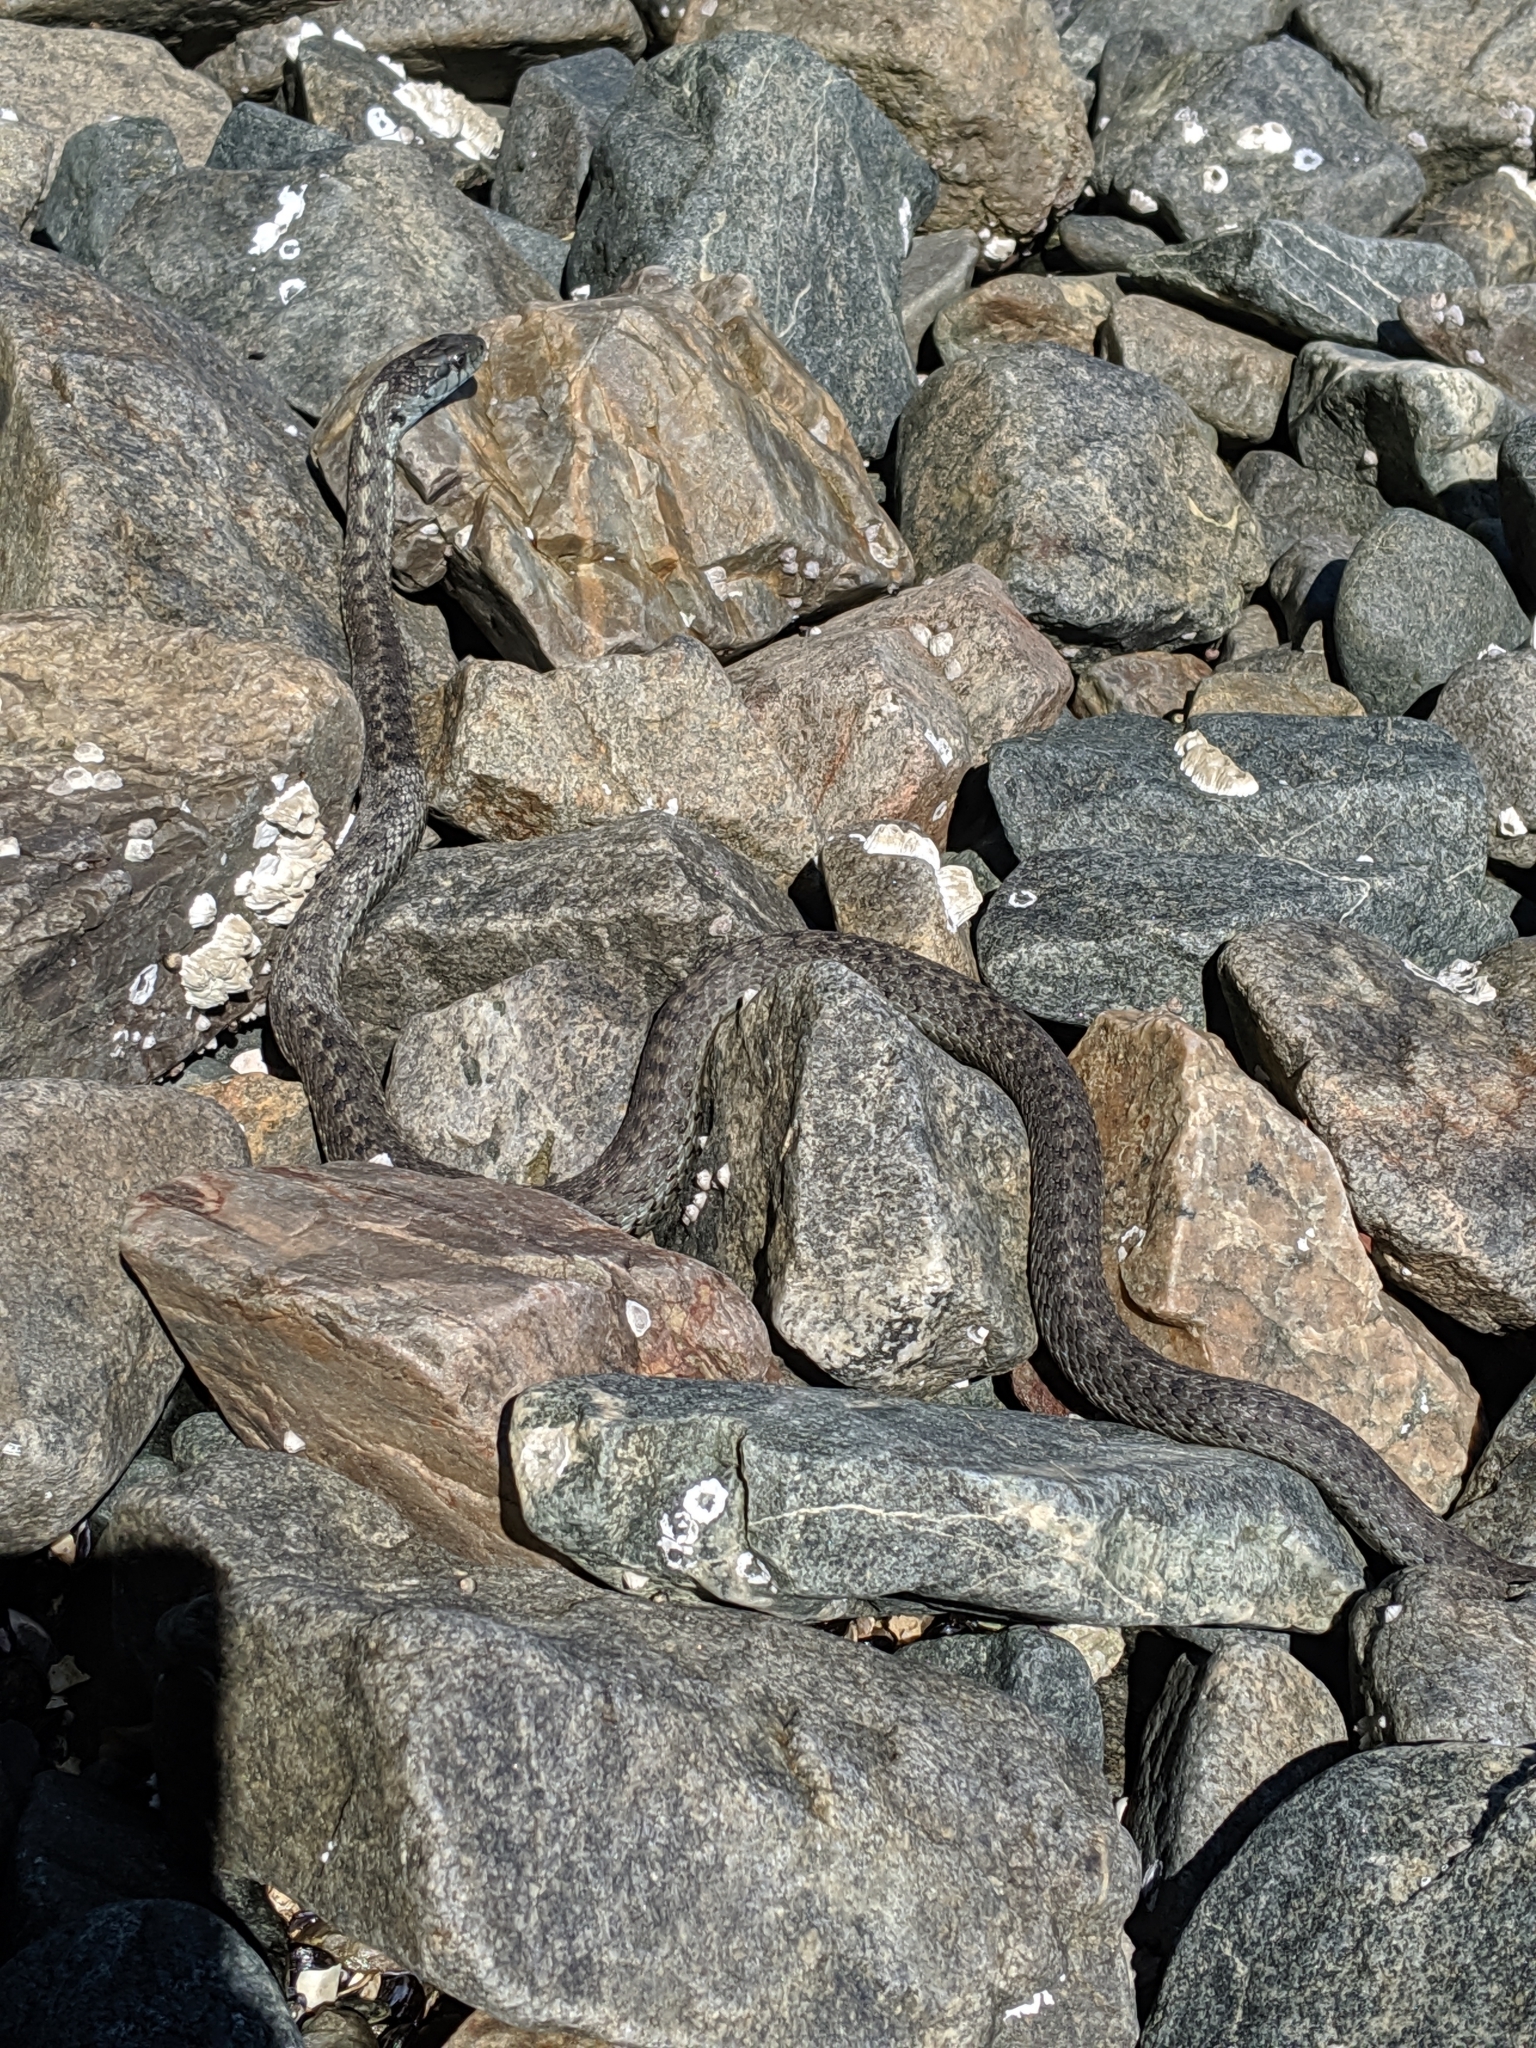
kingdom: Animalia
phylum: Chordata
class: Squamata
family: Colubridae
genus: Thamnophis
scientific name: Thamnophis elegans
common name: Western terrestrial garter snake
